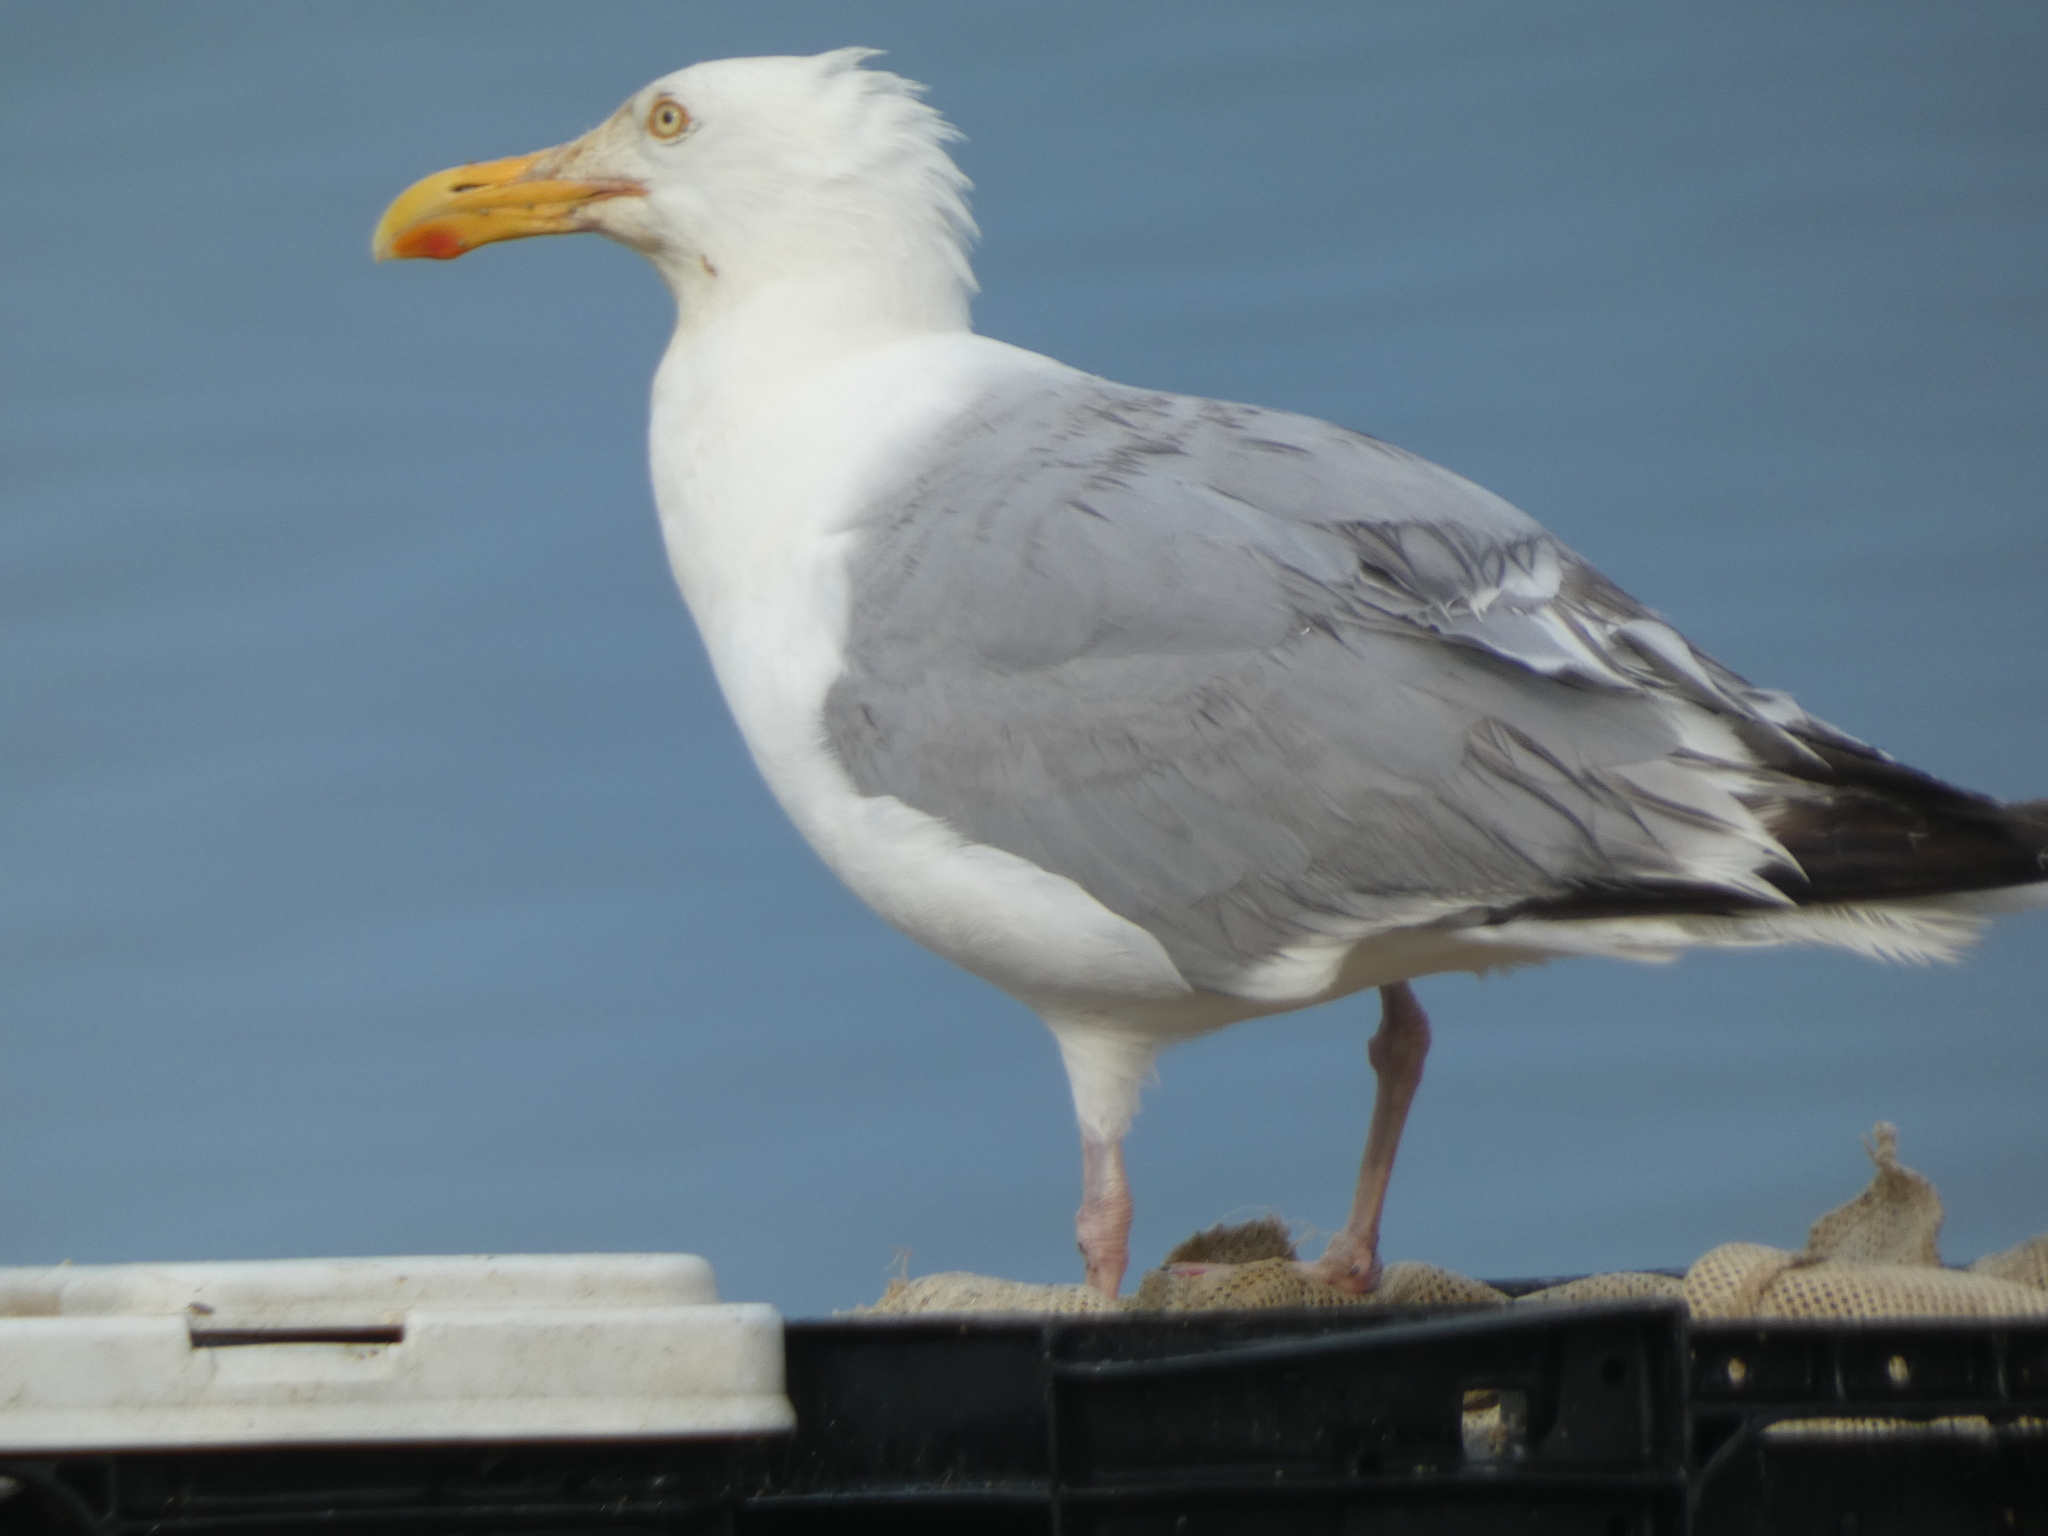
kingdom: Animalia
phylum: Chordata
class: Aves
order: Charadriiformes
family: Laridae
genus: Larus
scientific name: Larus argentatus
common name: Herring gull
